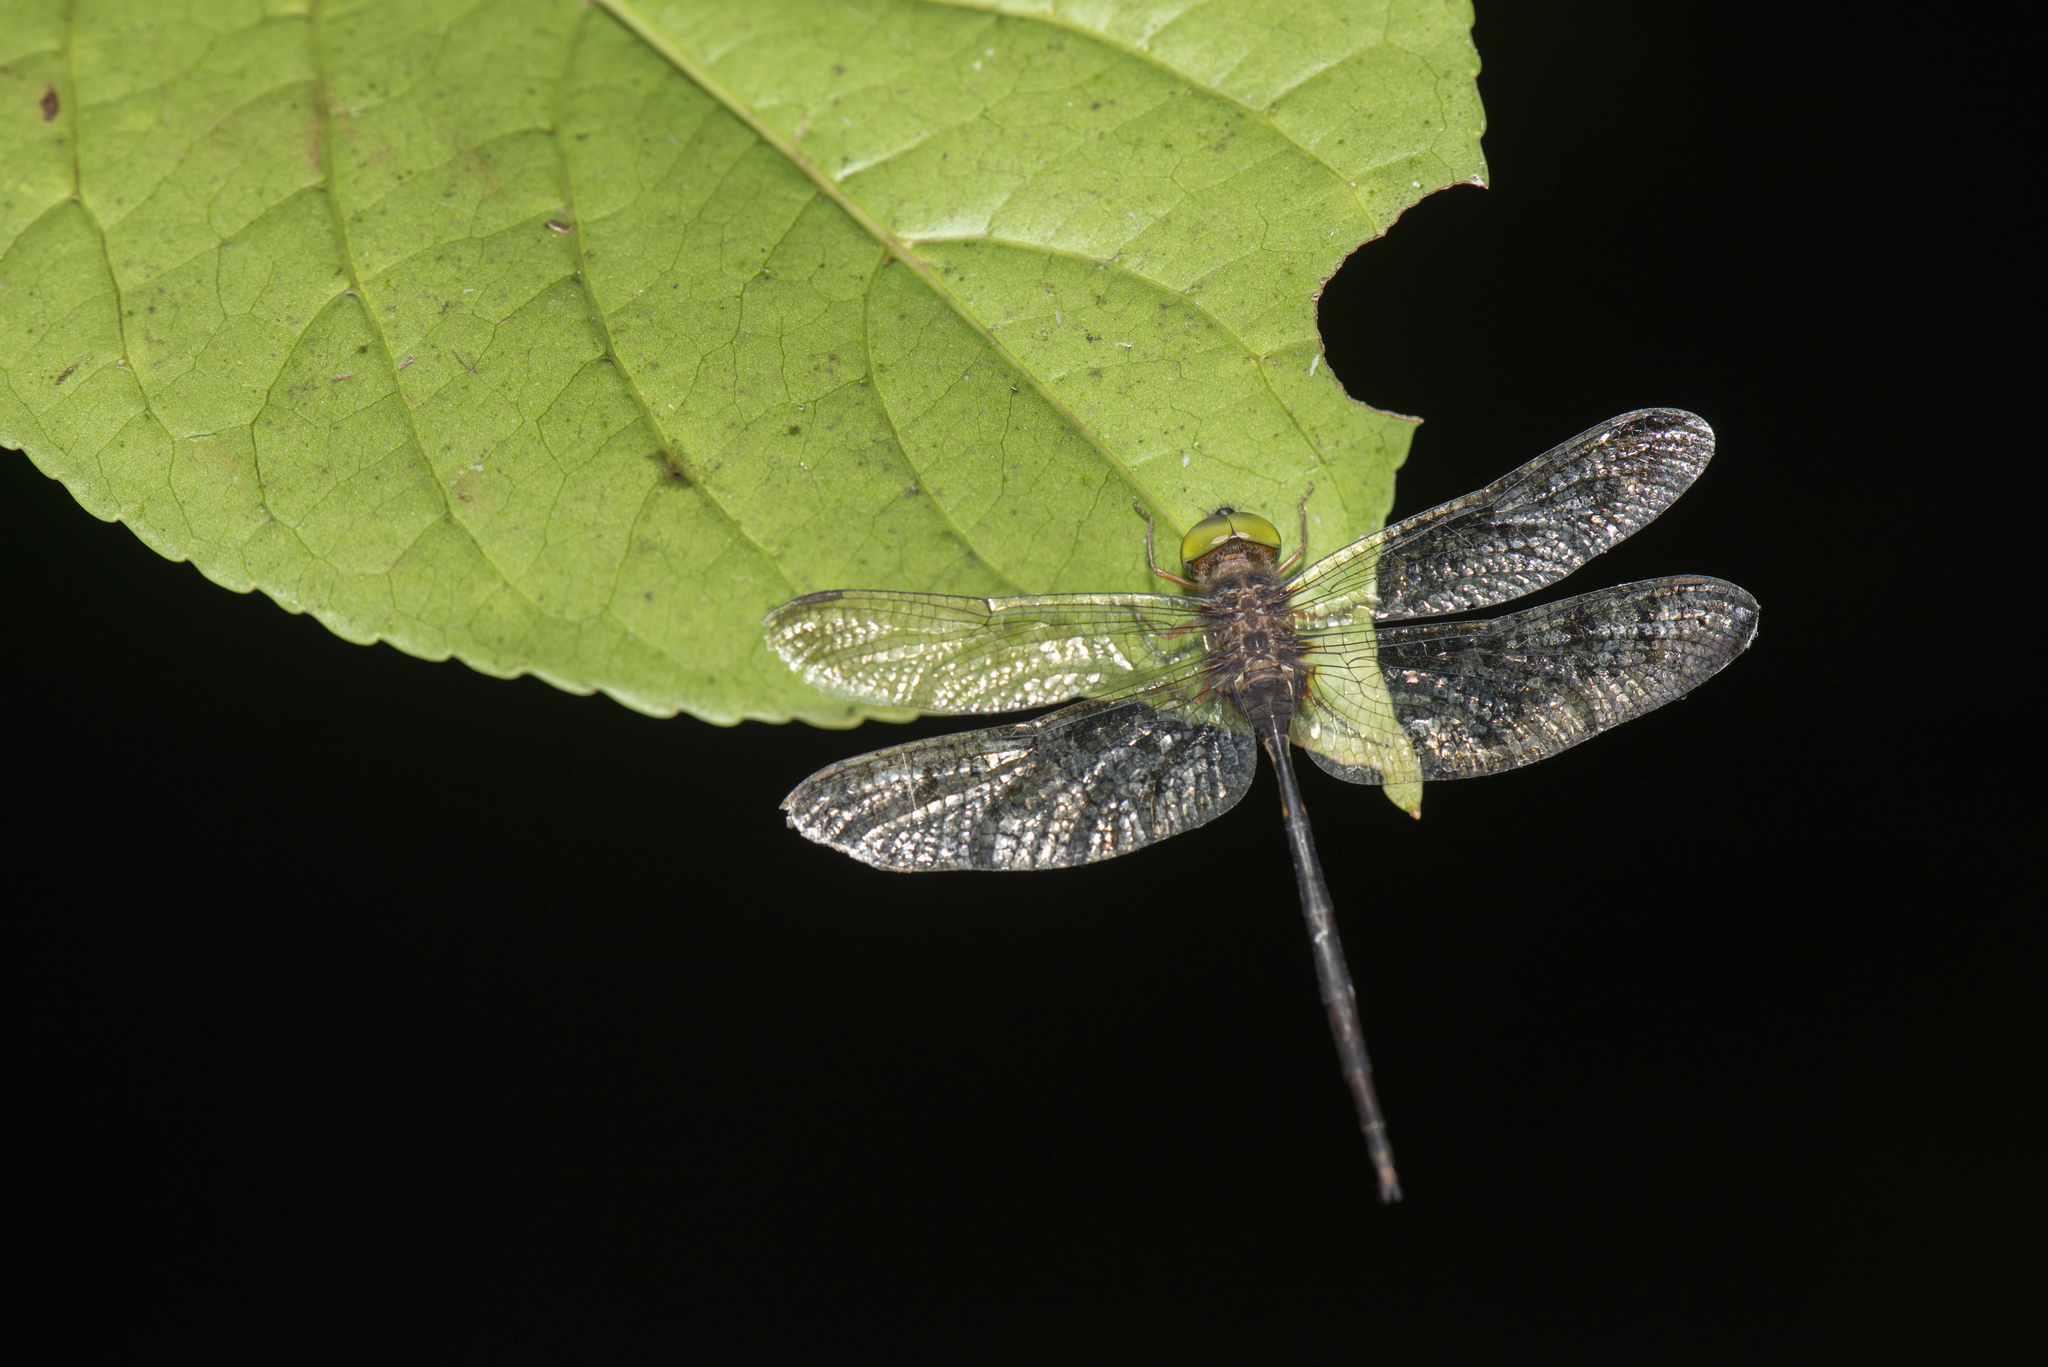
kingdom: Animalia
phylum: Arthropoda
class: Insecta
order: Odonata
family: Libellulidae
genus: Zyxomma
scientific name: Zyxomma petiolatum
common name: Dingy dusk-darter
